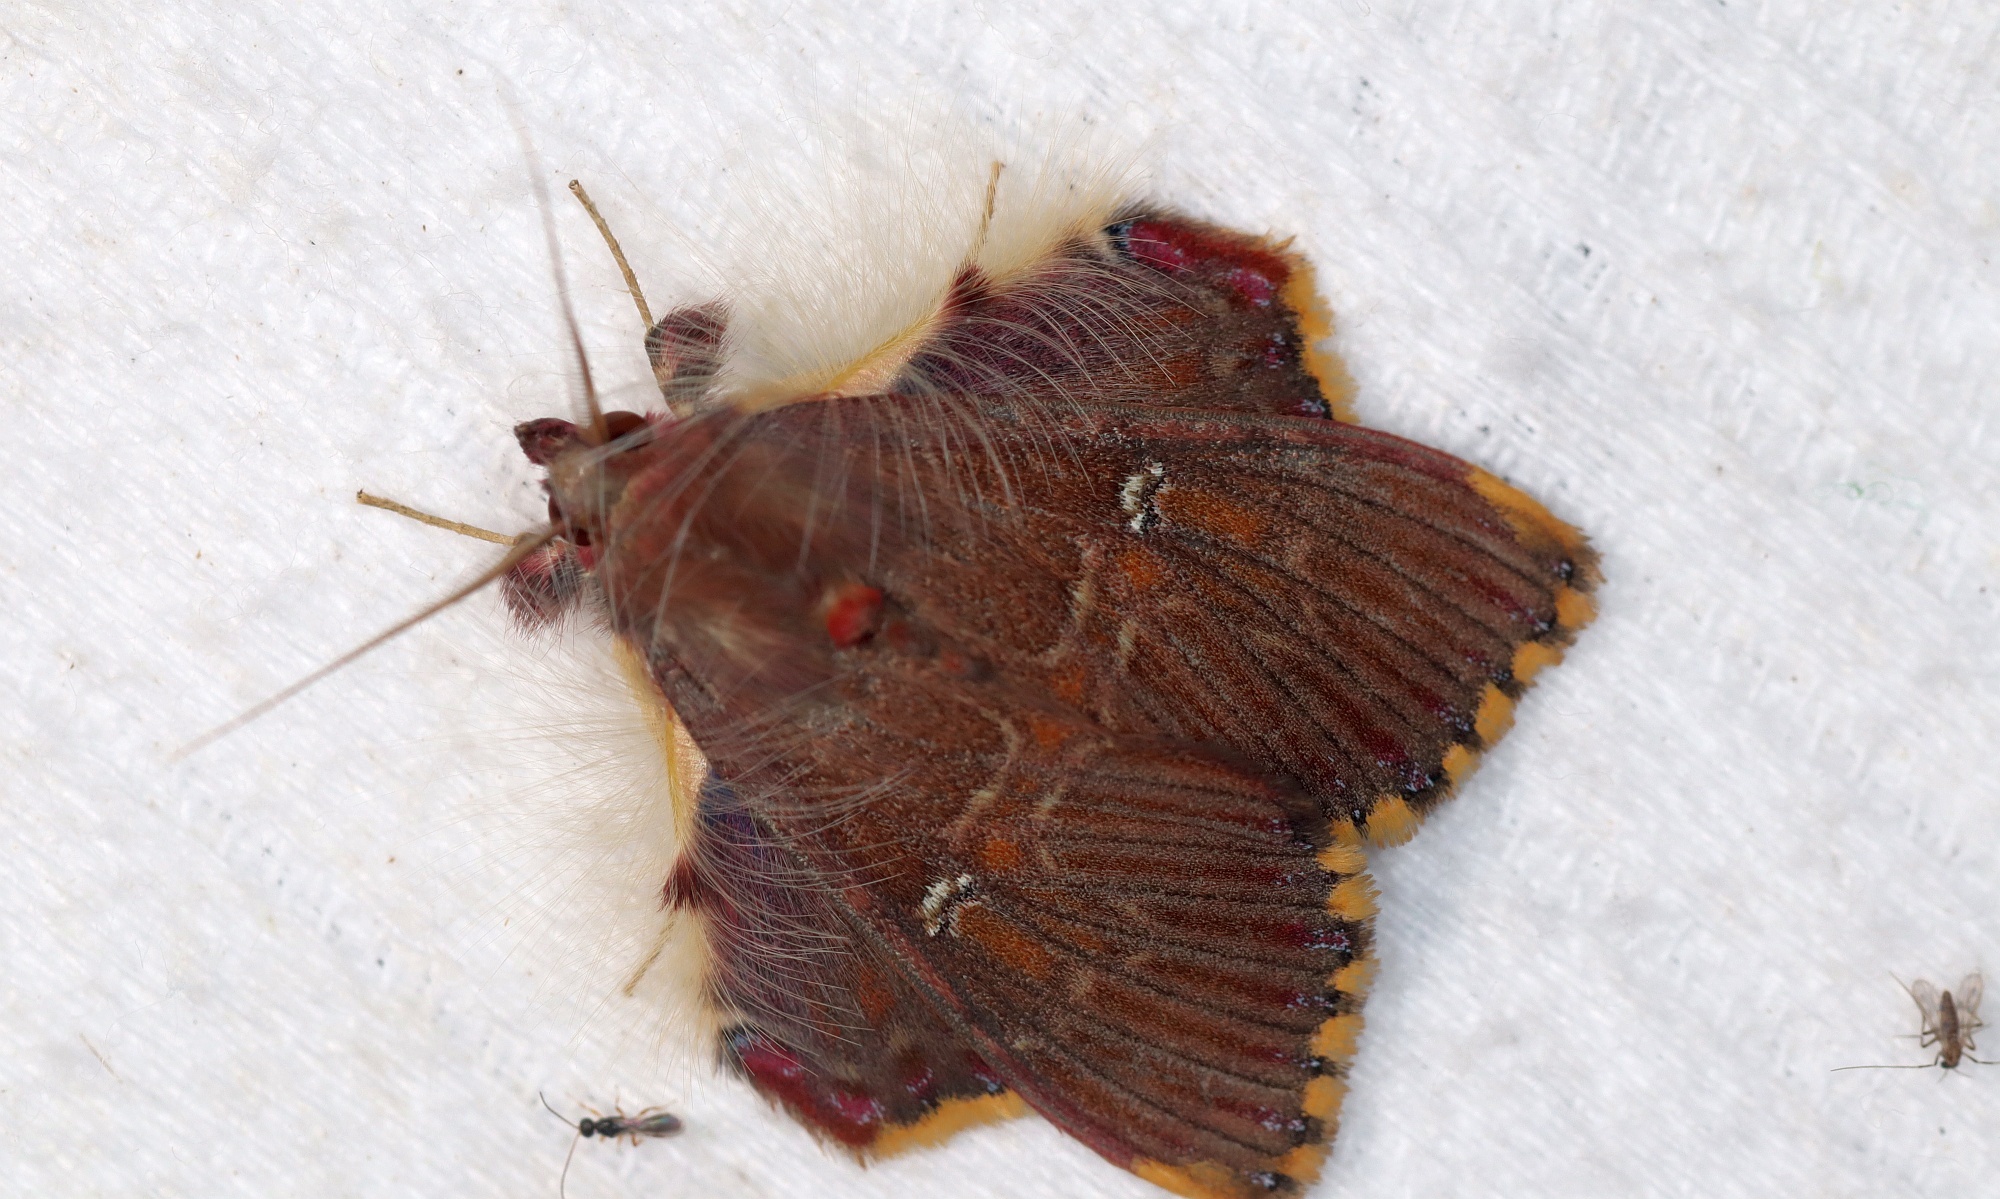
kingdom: Animalia
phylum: Arthropoda
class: Insecta
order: Lepidoptera
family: Erebidae
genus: Sosxetra
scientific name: Sosxetra grata
